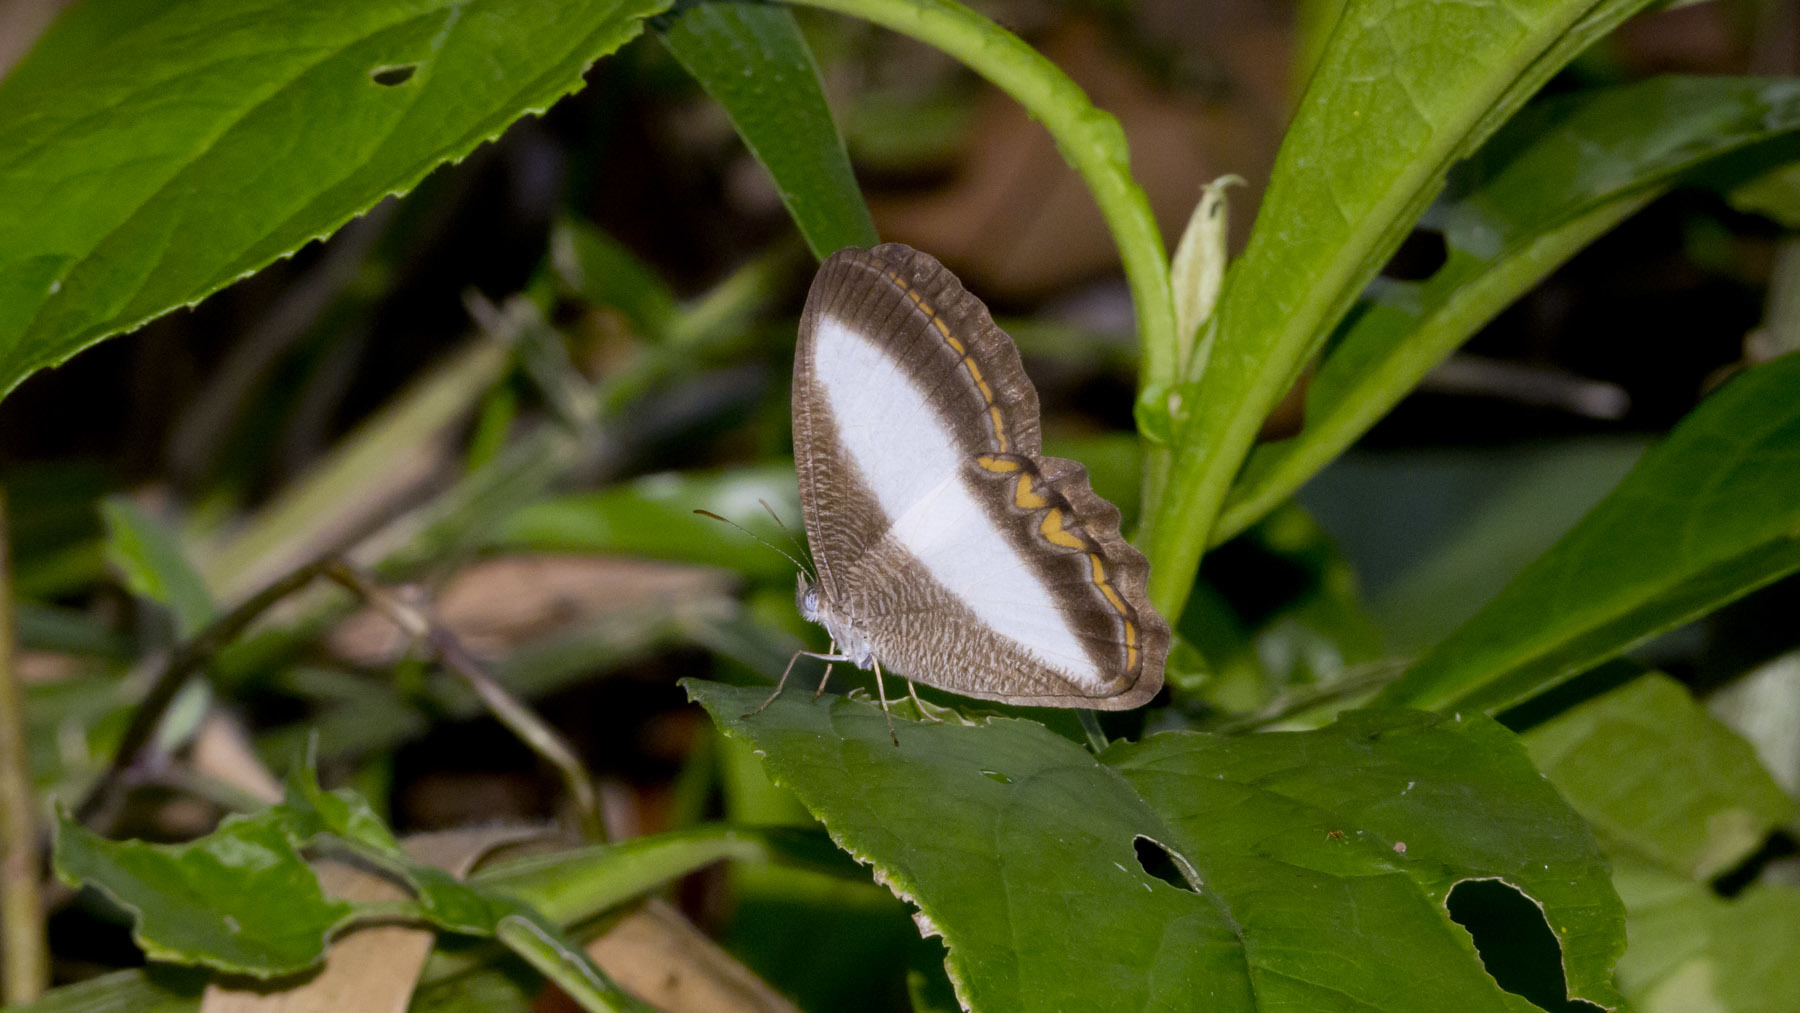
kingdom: Animalia
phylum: Arthropoda
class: Insecta
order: Lepidoptera
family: Nymphalidae
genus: Oressinoma
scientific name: Oressinoma typhla
